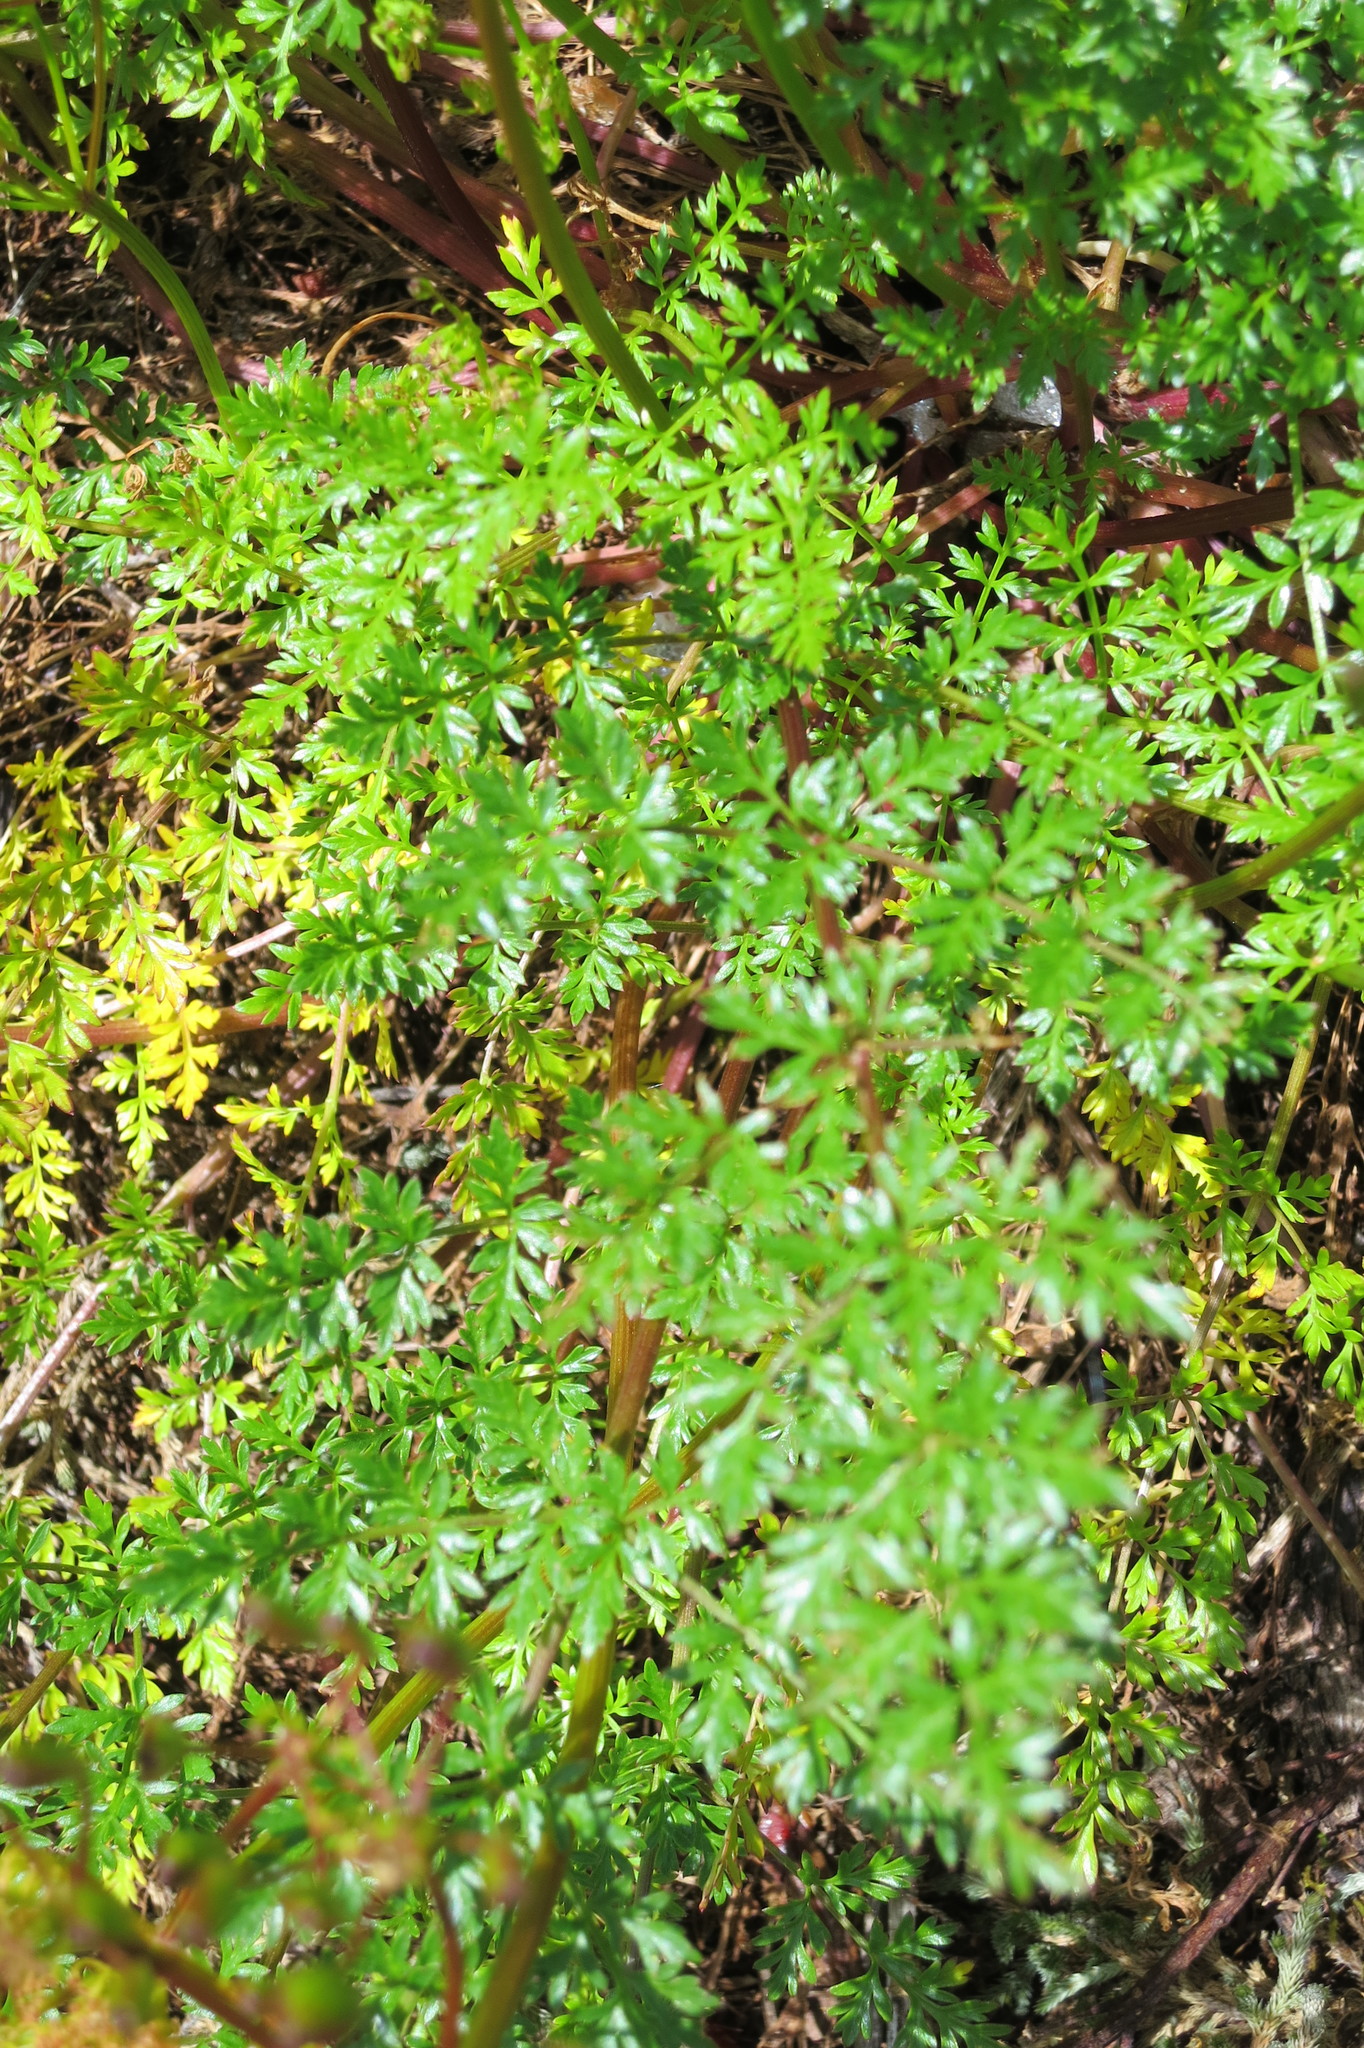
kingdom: Plantae
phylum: Tracheophyta
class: Magnoliopsida
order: Apiales
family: Apiaceae
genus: Lomatium
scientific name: Lomatium hallii
